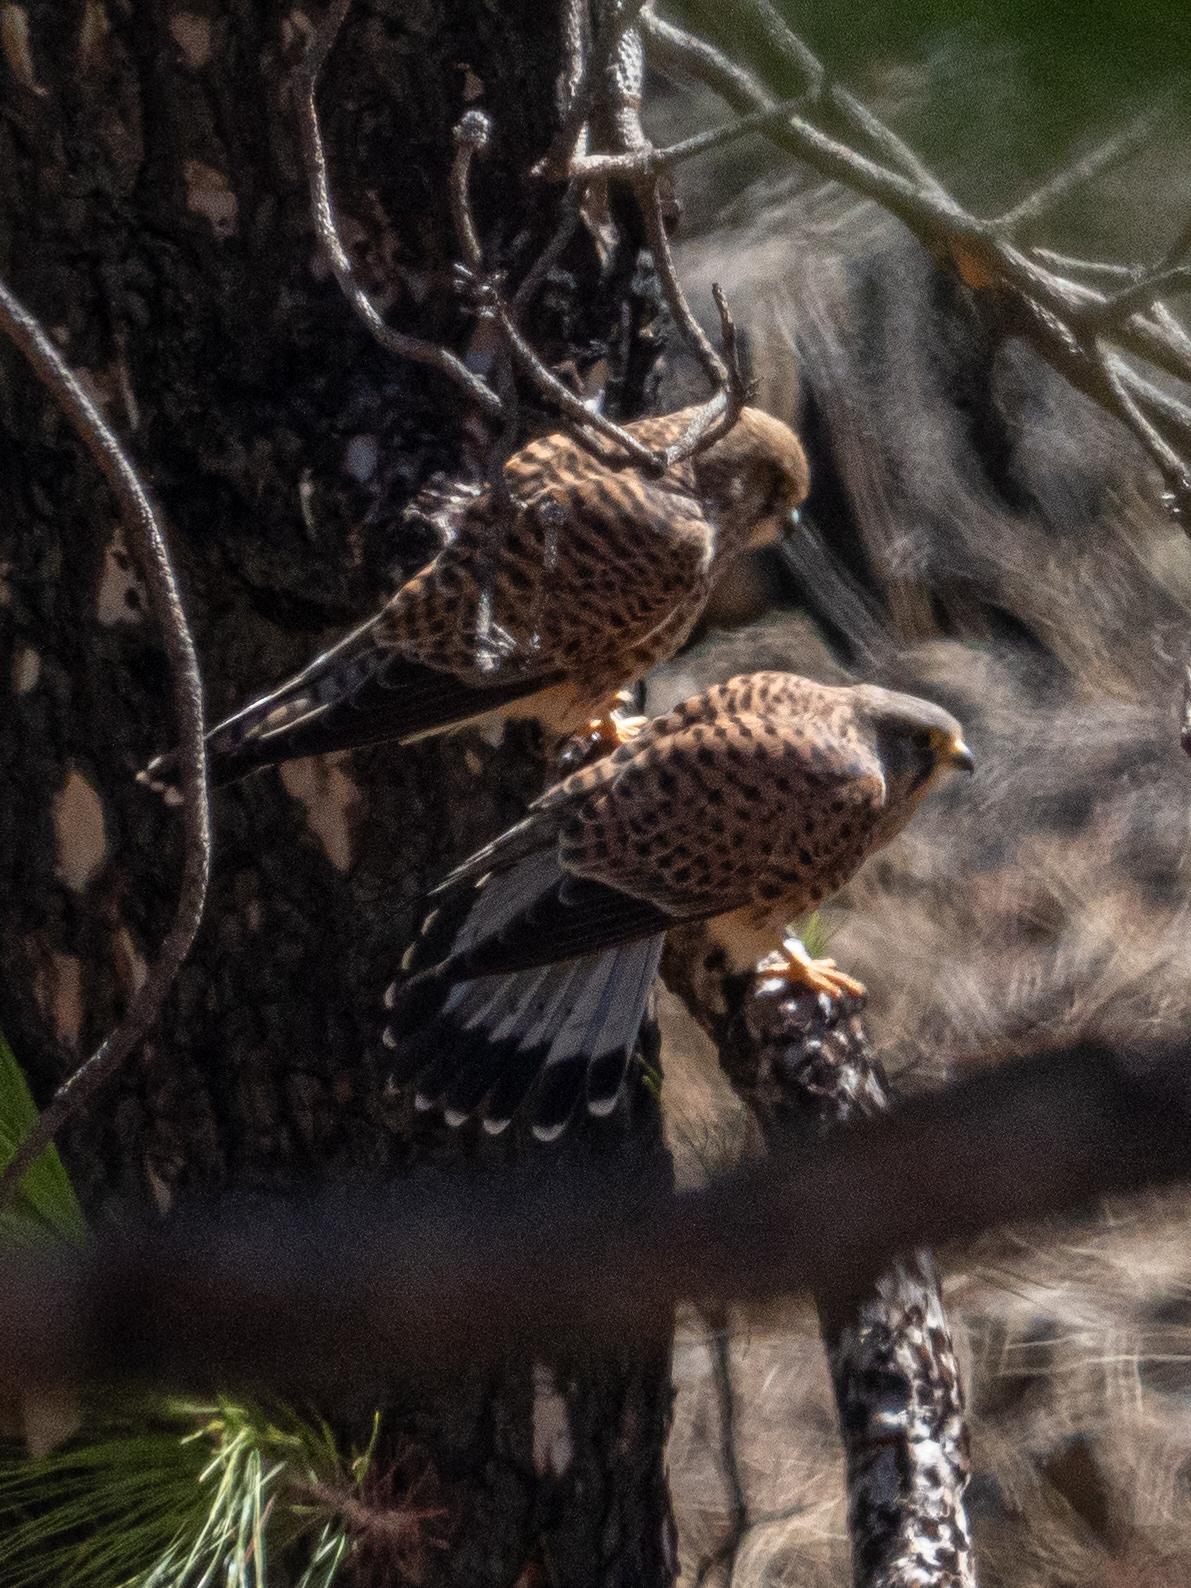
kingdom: Animalia
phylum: Chordata
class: Aves
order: Falconiformes
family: Falconidae
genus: Falco
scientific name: Falco tinnunculus
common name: Common kestrel
